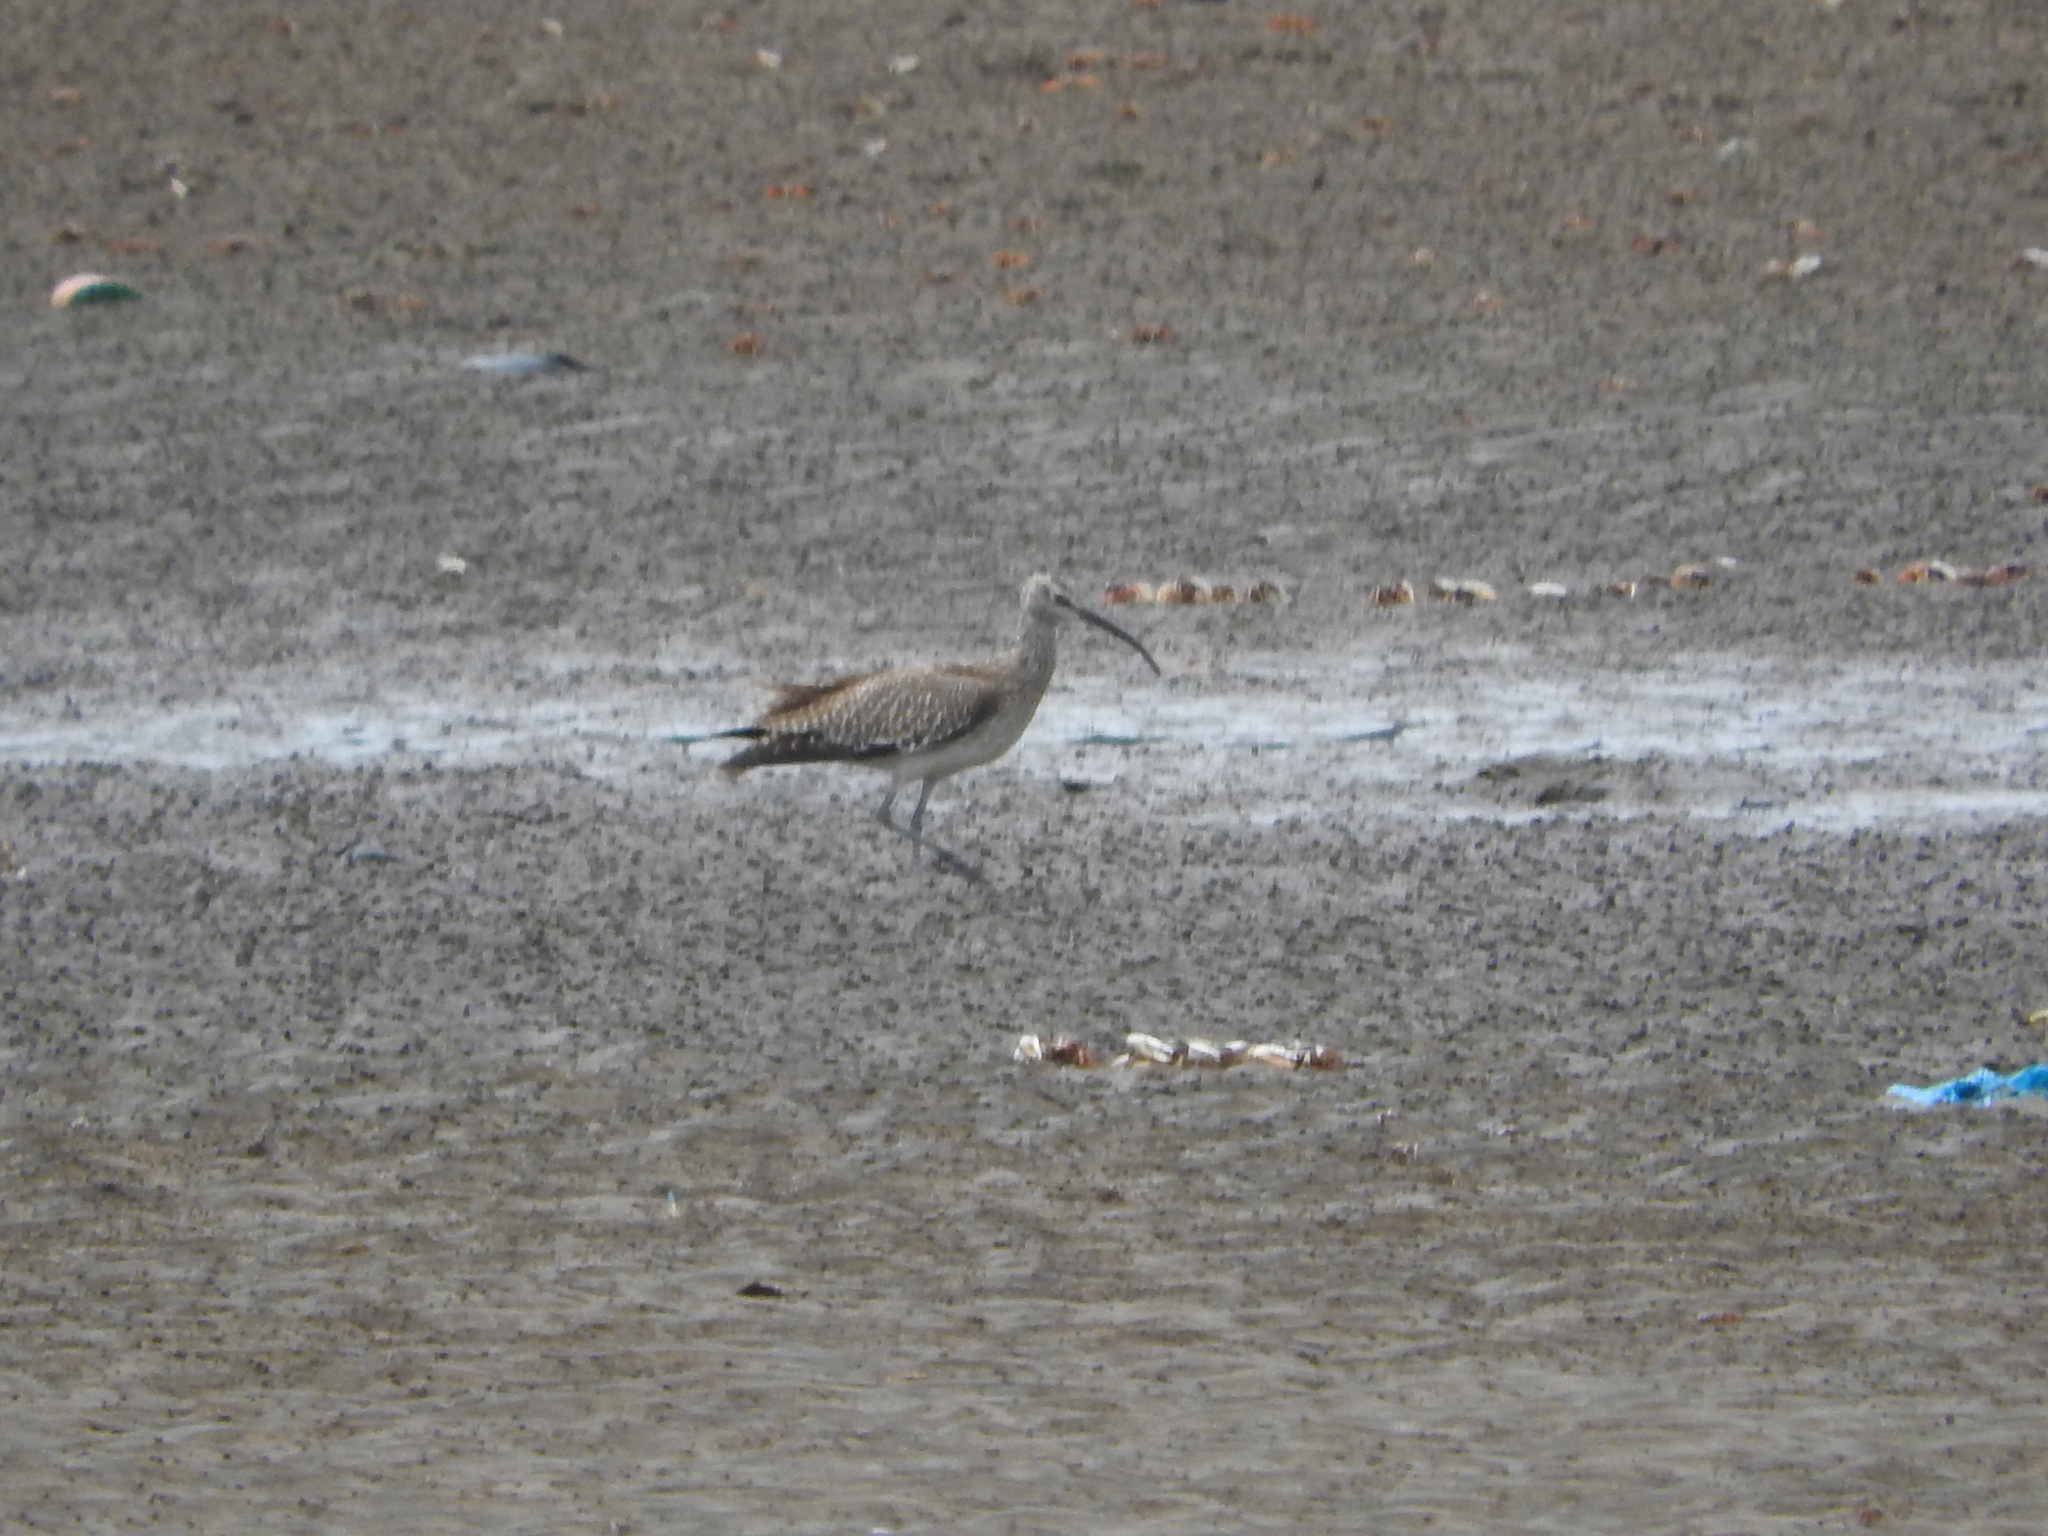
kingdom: Animalia
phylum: Chordata
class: Aves
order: Charadriiformes
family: Scolopacidae
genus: Numenius
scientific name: Numenius phaeopus
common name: Whimbrel
